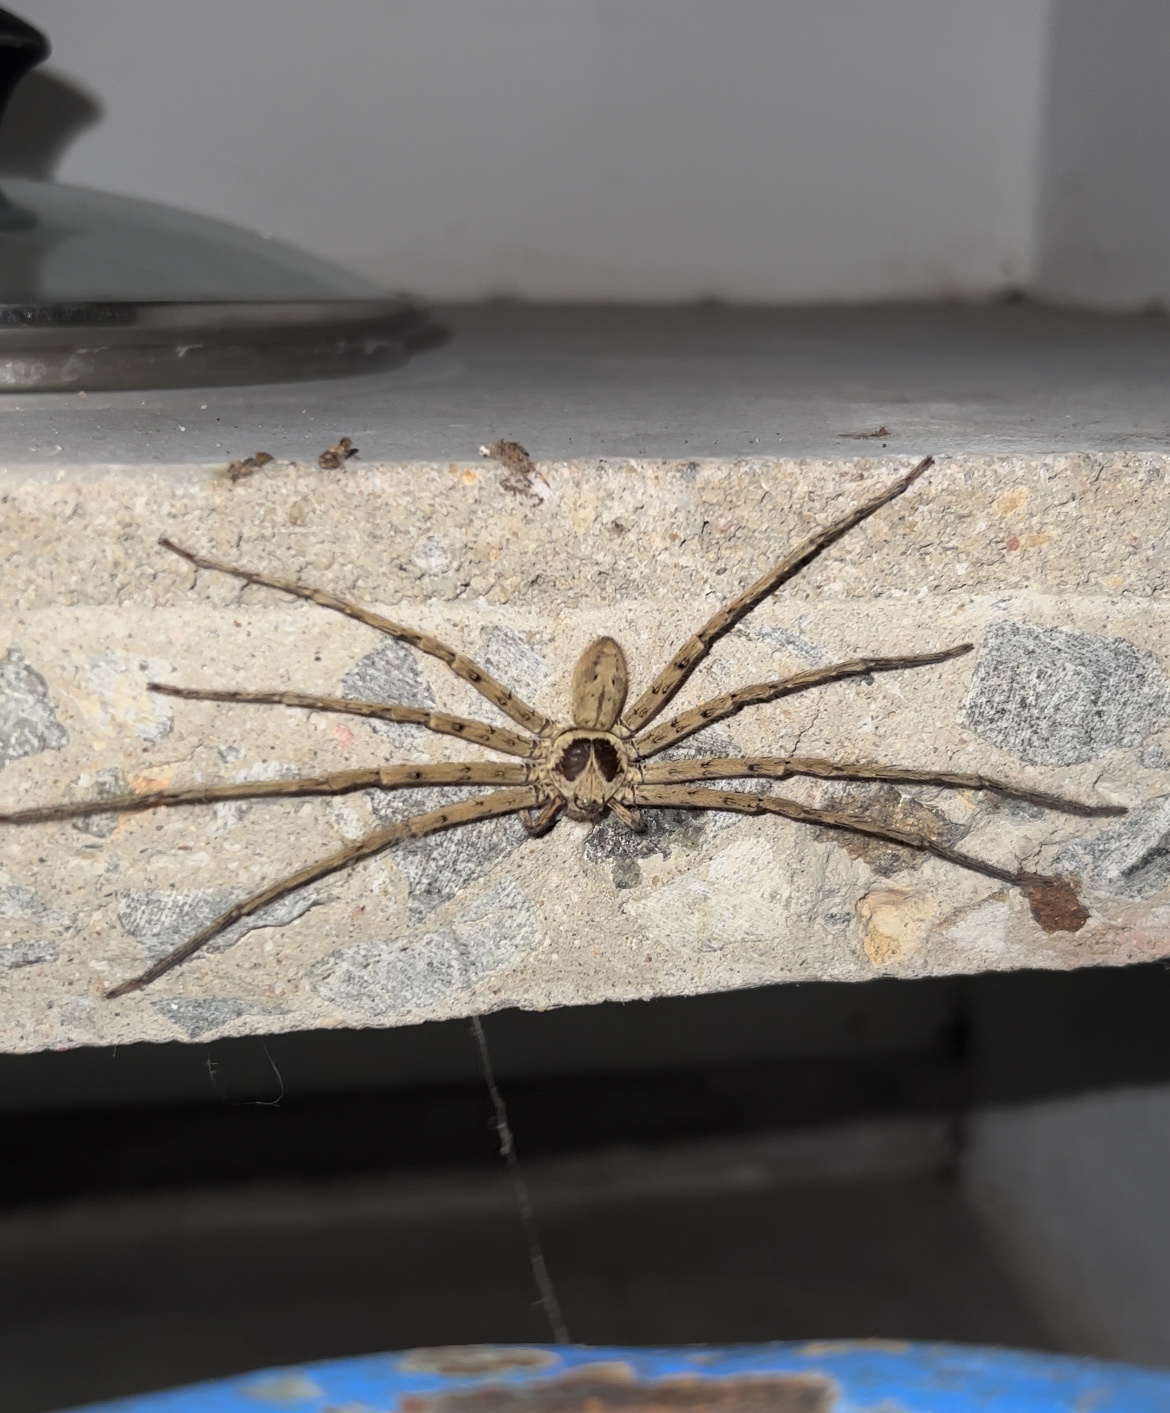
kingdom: Animalia
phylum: Arthropoda
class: Arachnida
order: Araneae
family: Sparassidae
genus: Heteropoda
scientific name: Heteropoda venatoria
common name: Huntsman spider
